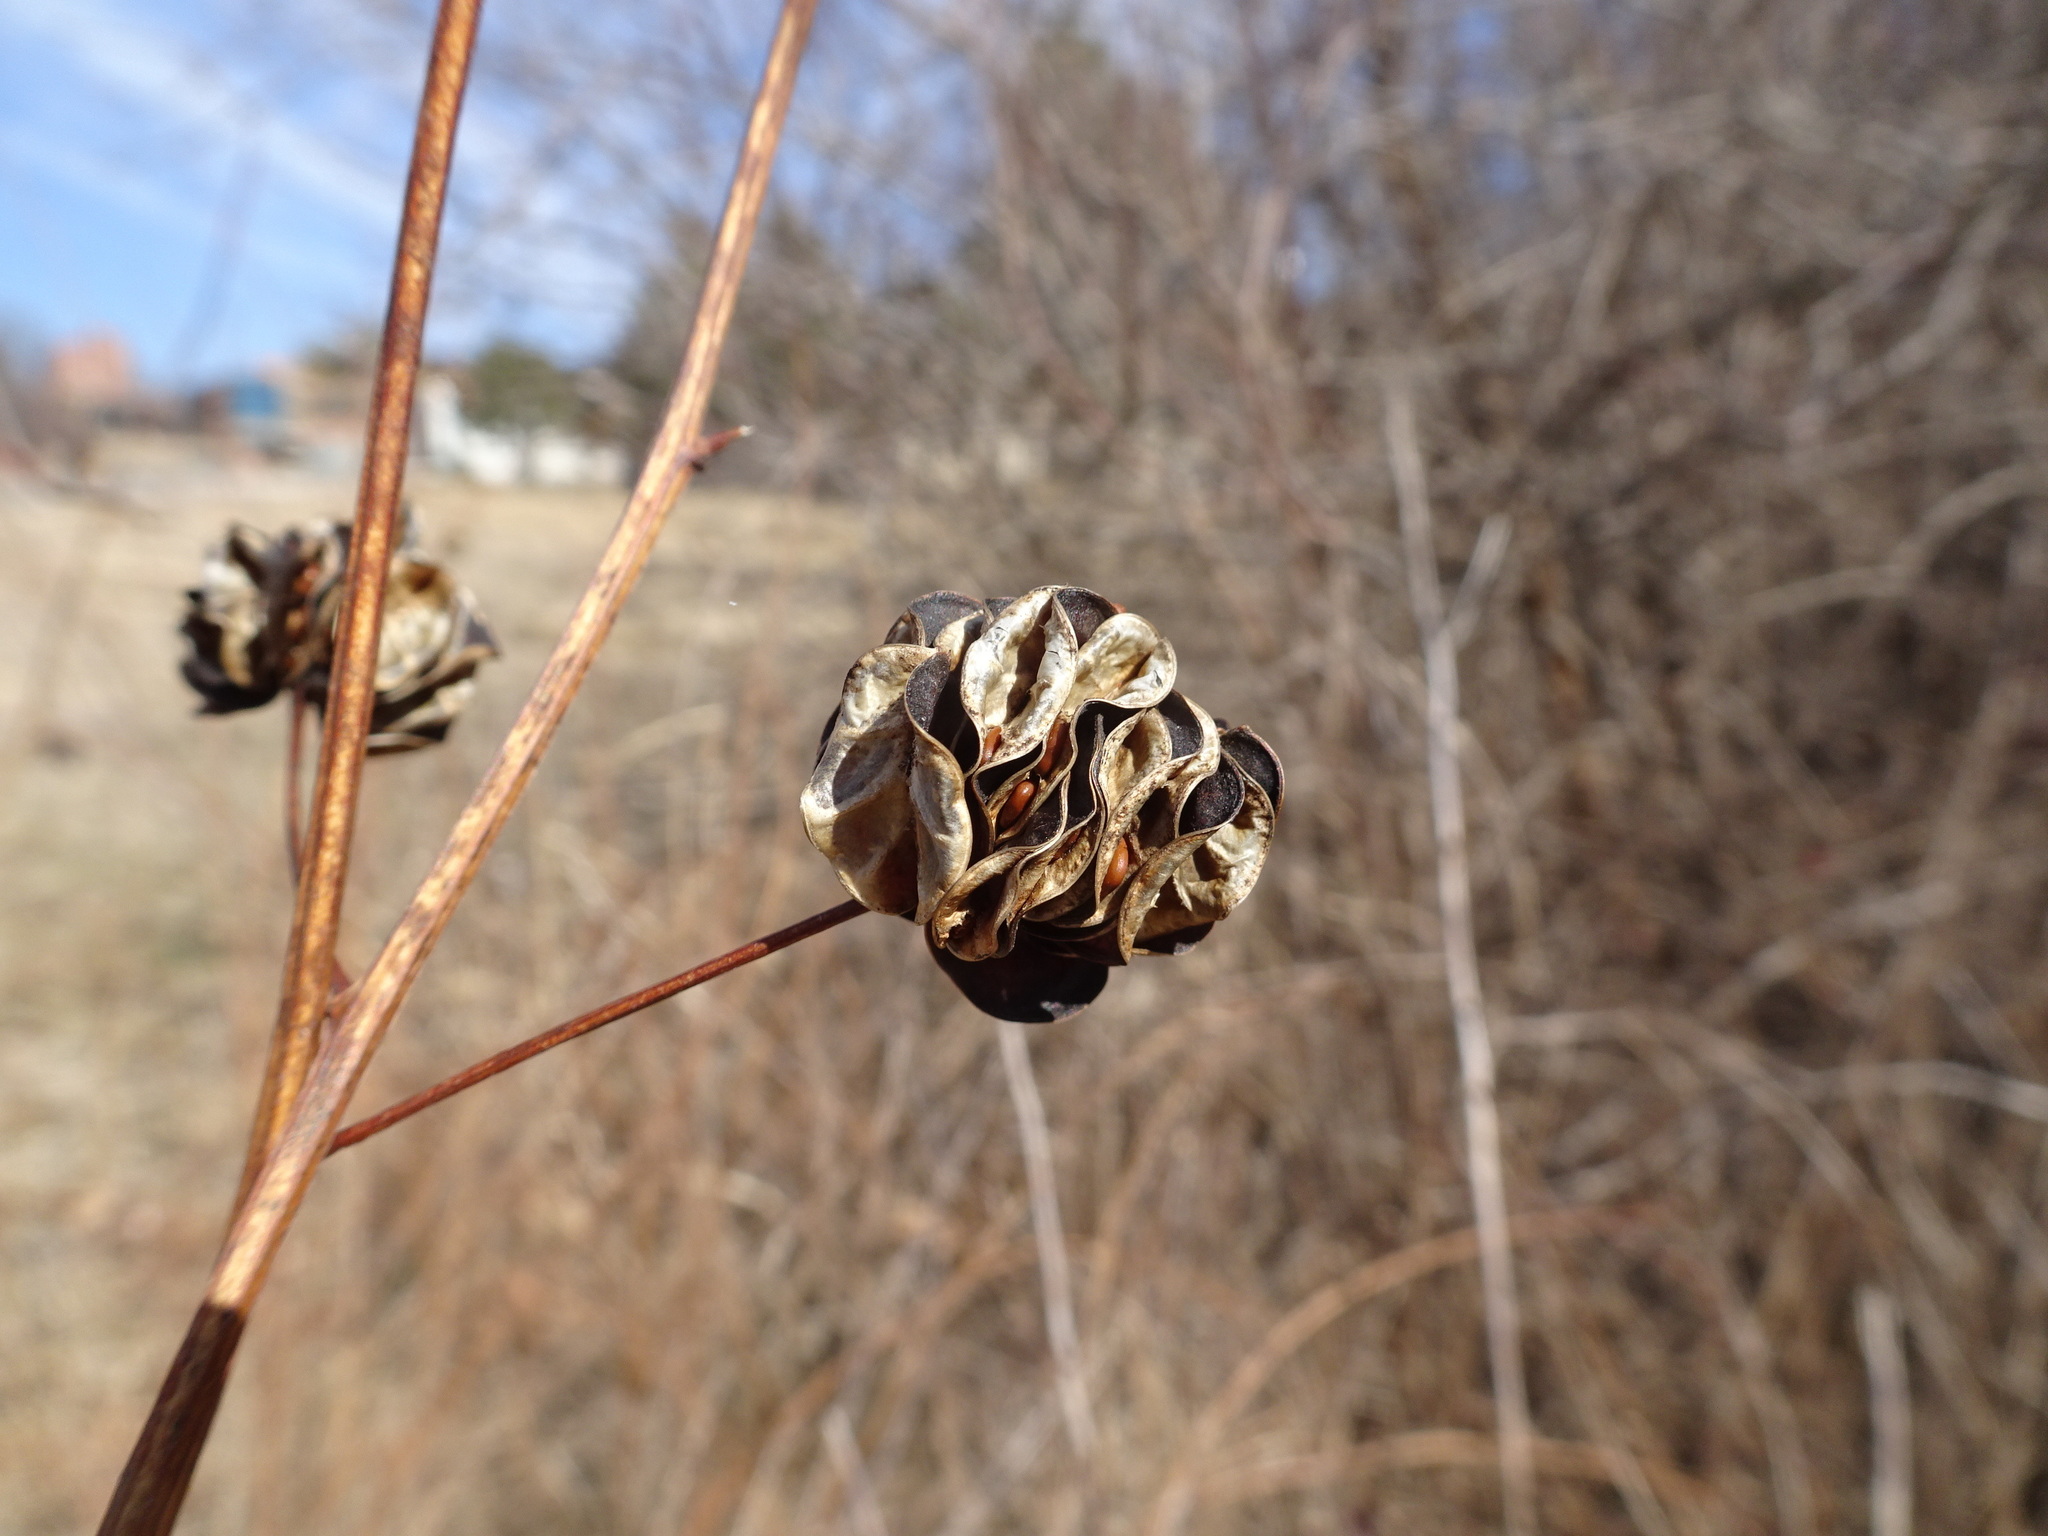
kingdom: Plantae
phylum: Tracheophyta
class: Magnoliopsida
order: Fabales
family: Fabaceae
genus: Desmanthus
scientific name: Desmanthus illinoensis
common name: Illinois bundle-flower
